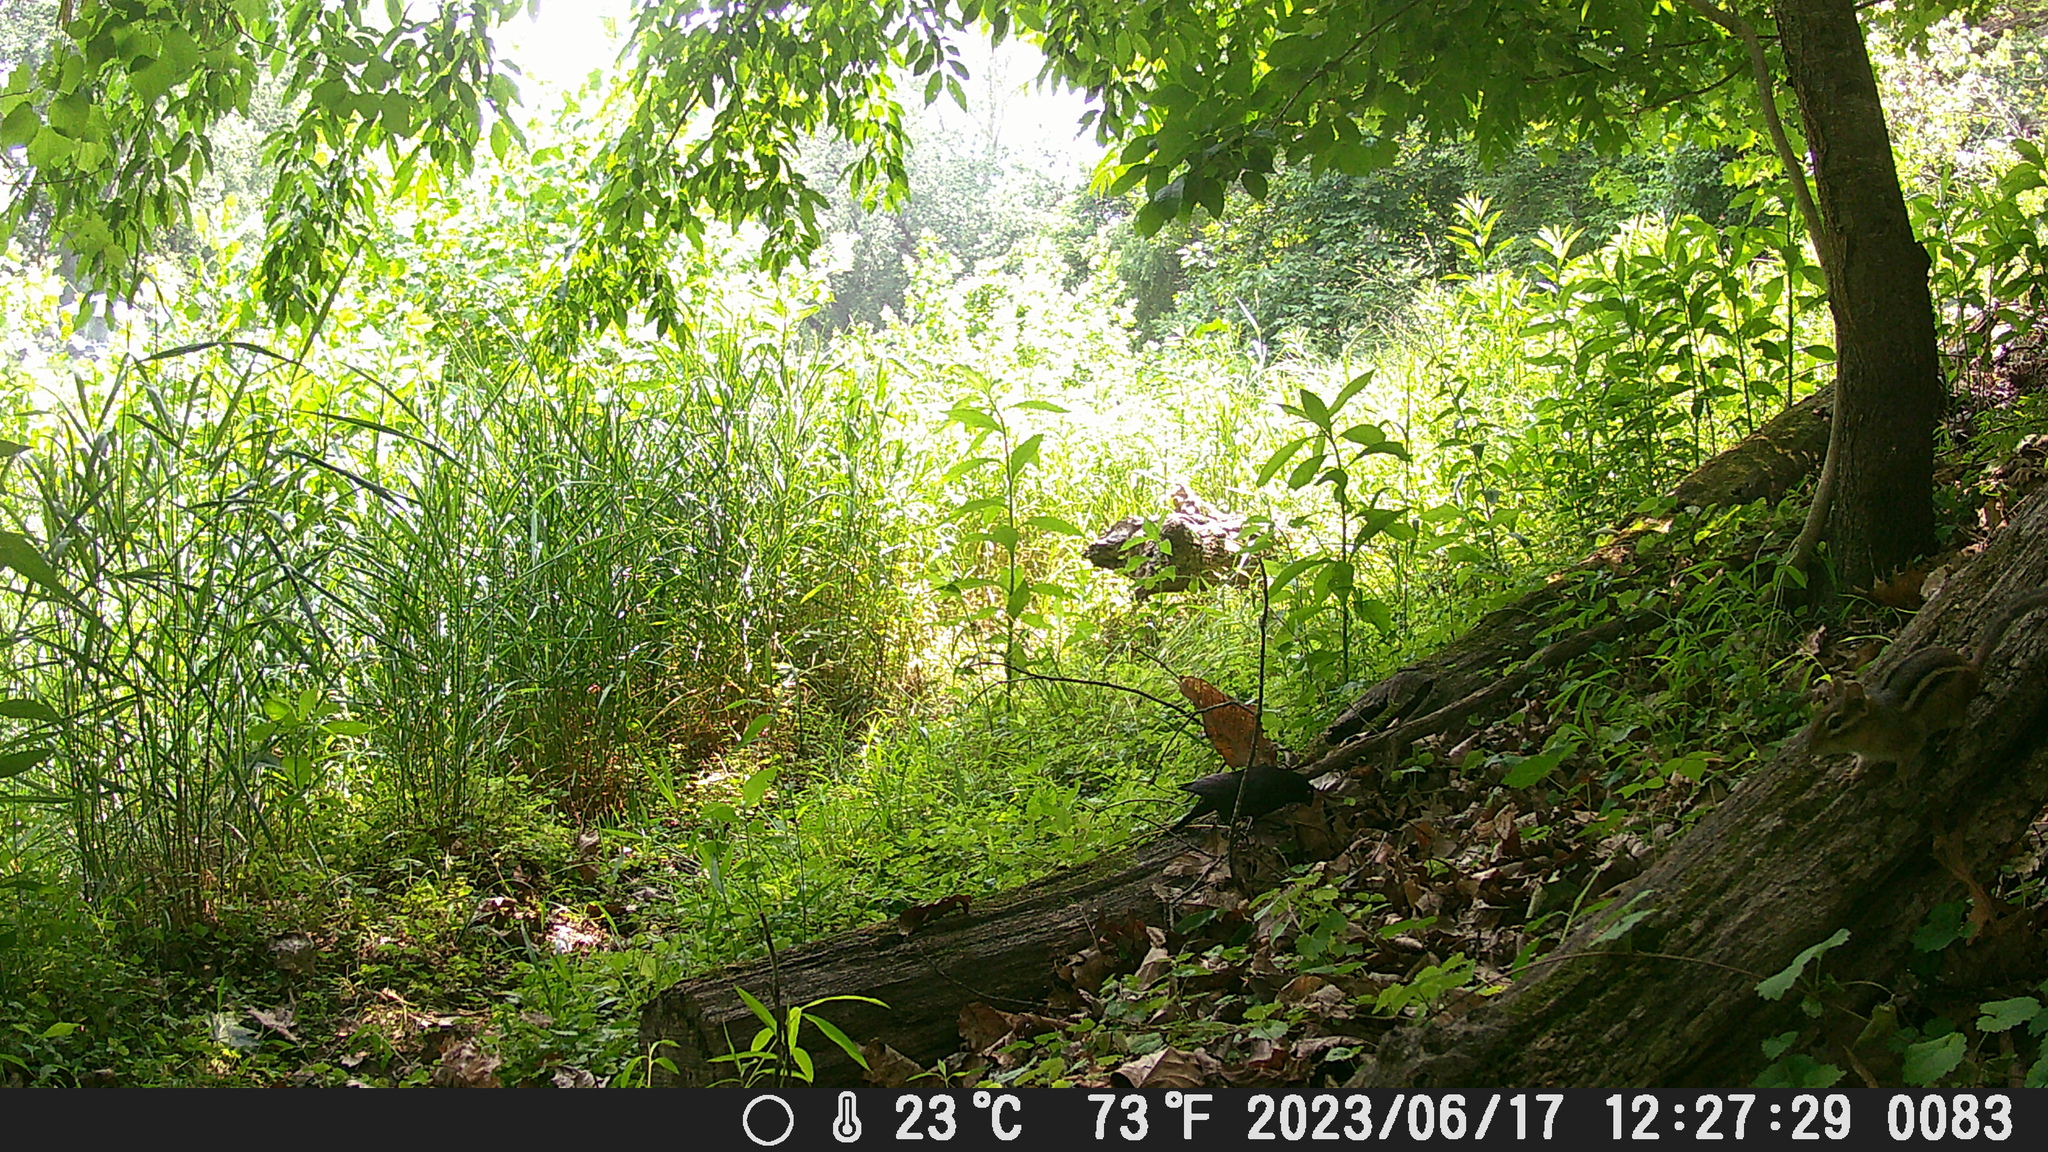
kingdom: Animalia
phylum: Chordata
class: Mammalia
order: Rodentia
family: Sciuridae
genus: Tamias
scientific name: Tamias striatus
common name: Eastern chipmunk
